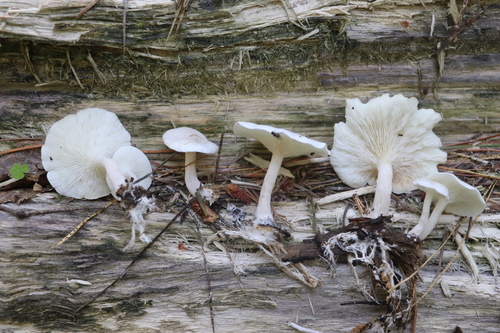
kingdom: Fungi
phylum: Basidiomycota
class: Agaricomycetes
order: Agaricales
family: Lyophyllaceae
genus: Ossicaulis
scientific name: Ossicaulis lignatilis
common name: Mealy oyster
